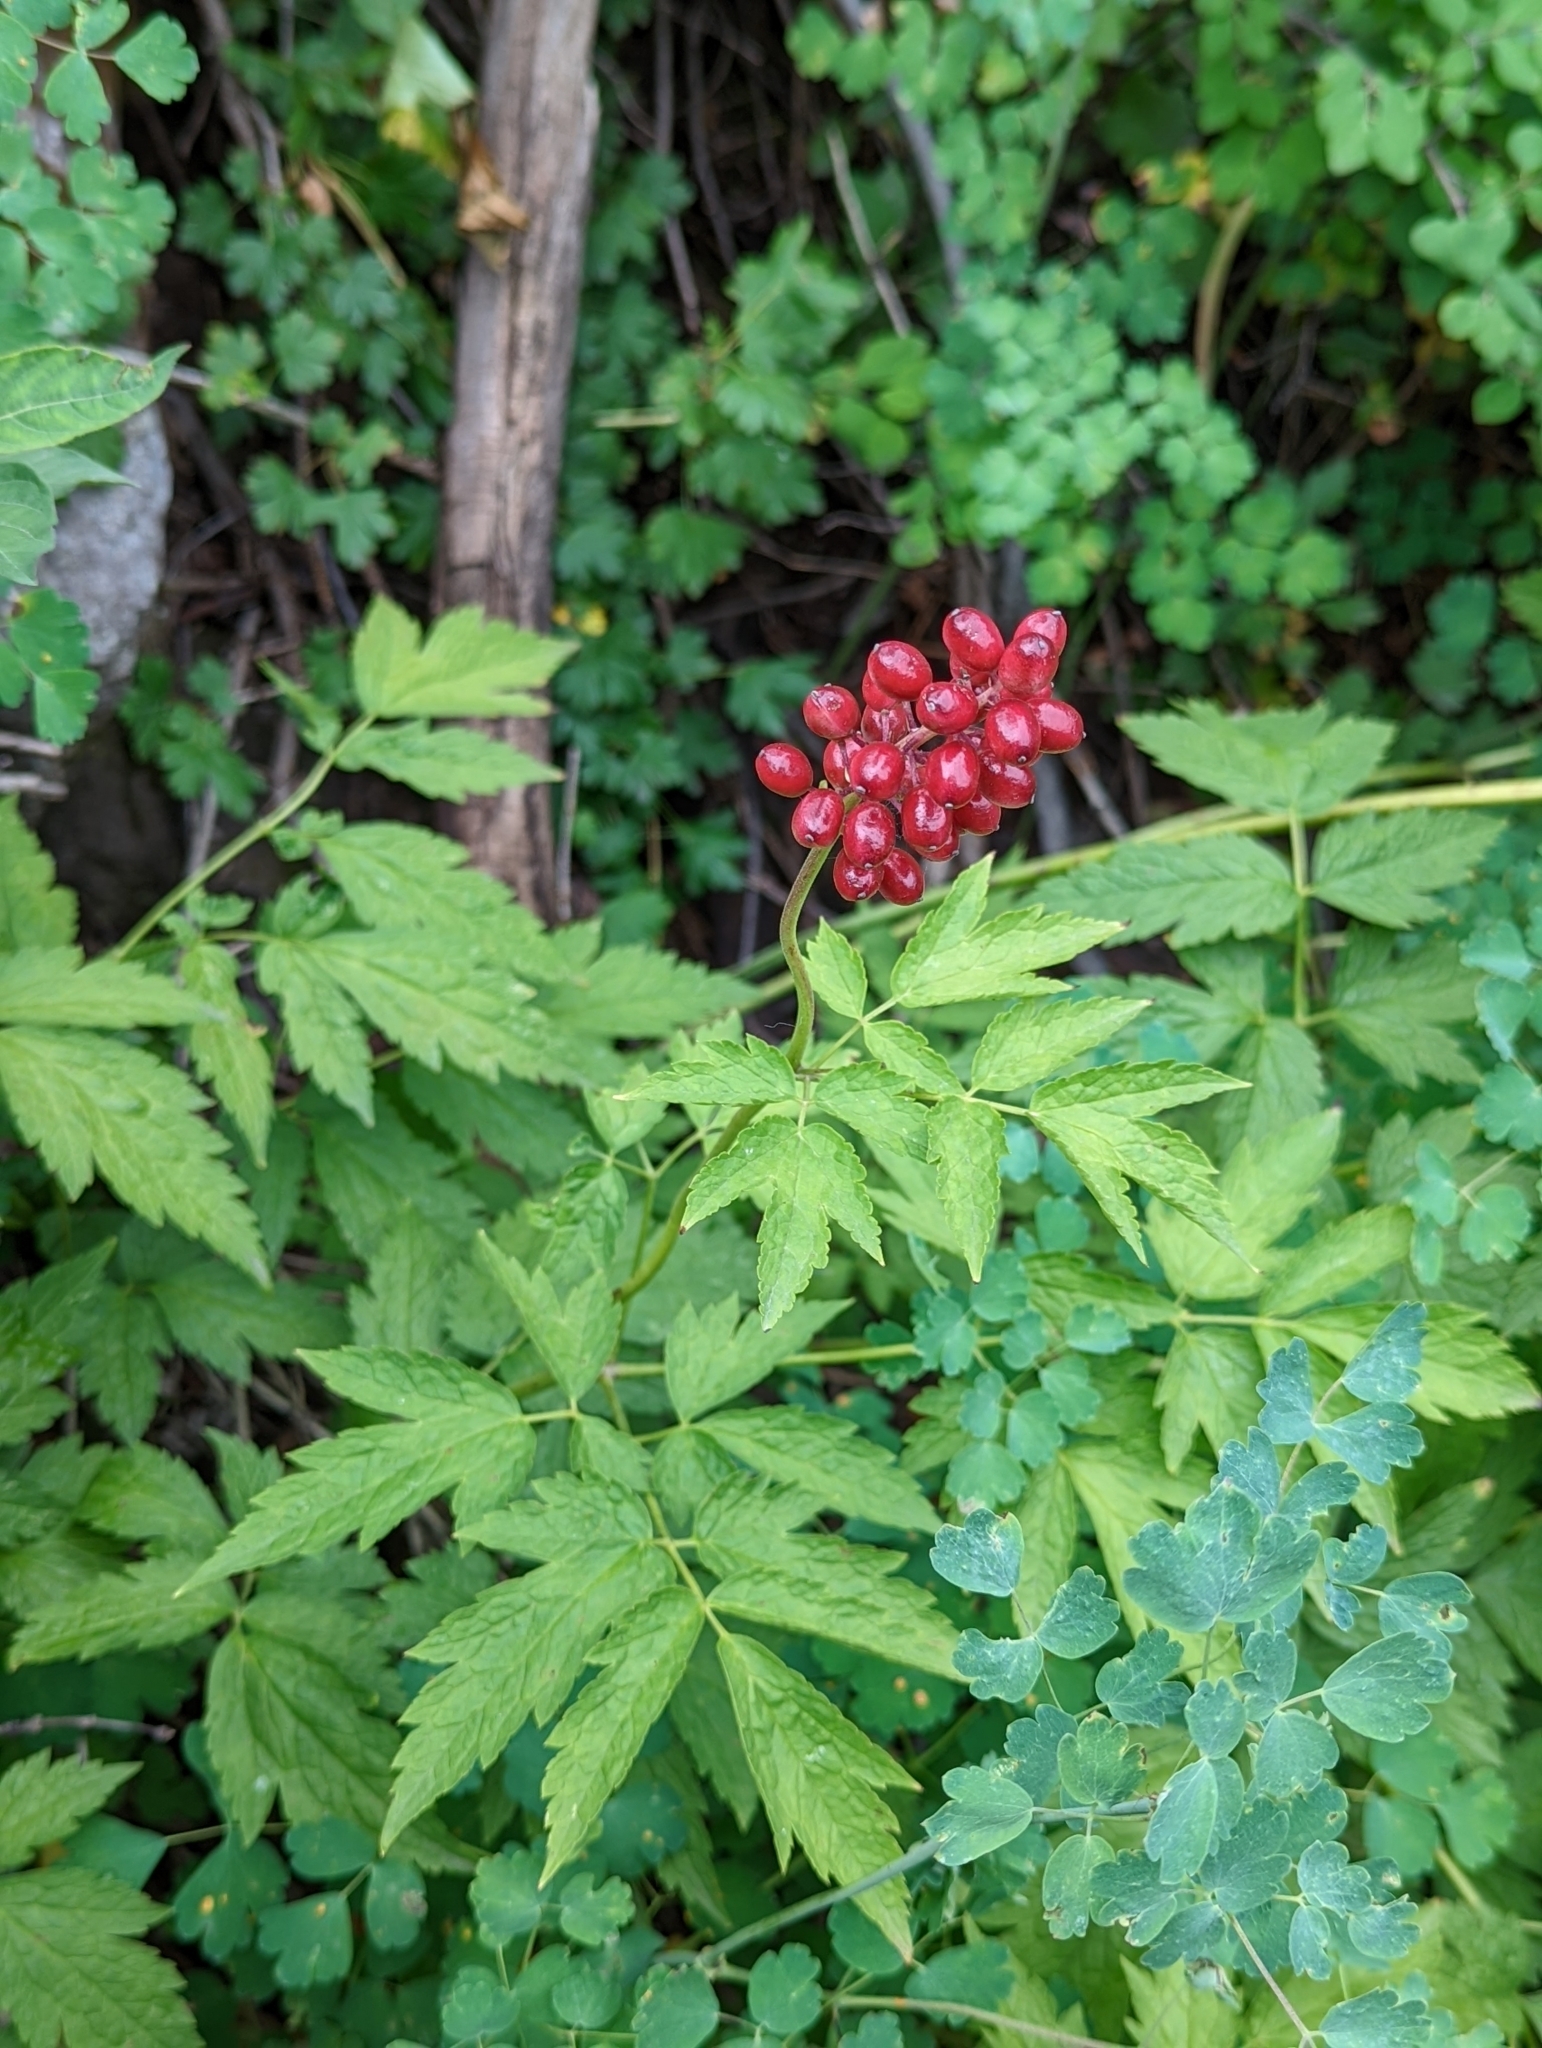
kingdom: Plantae
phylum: Tracheophyta
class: Magnoliopsida
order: Ranunculales
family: Ranunculaceae
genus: Actaea
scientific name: Actaea rubra
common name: Red baneberry
